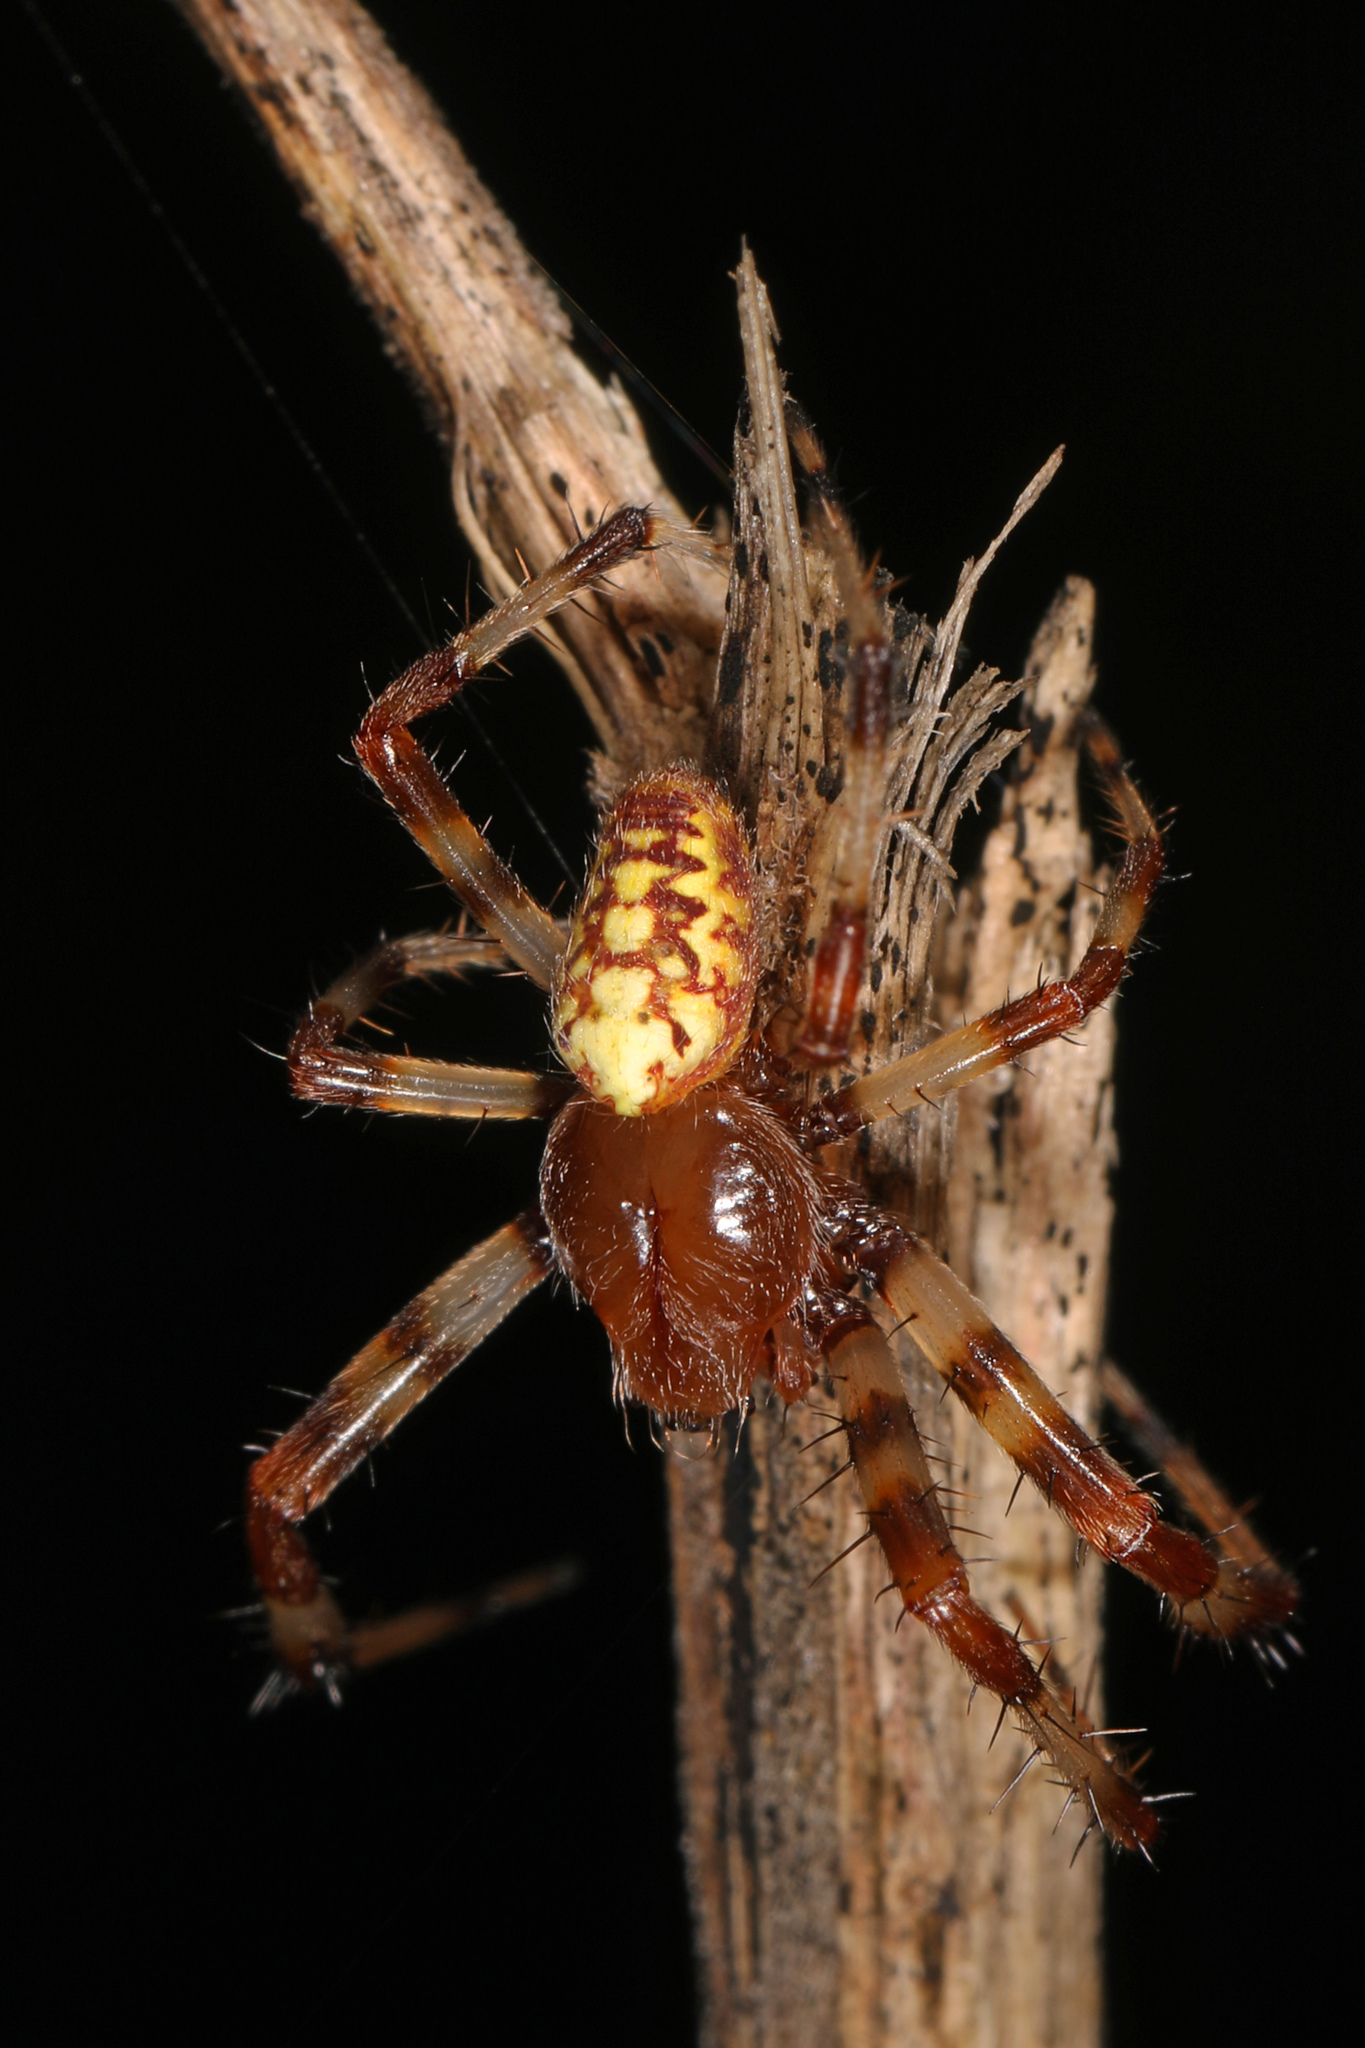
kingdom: Animalia
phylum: Arthropoda
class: Arachnida
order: Araneae
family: Araneidae
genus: Araneus
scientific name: Araneus marmoreus
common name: Marbled orbweaver
